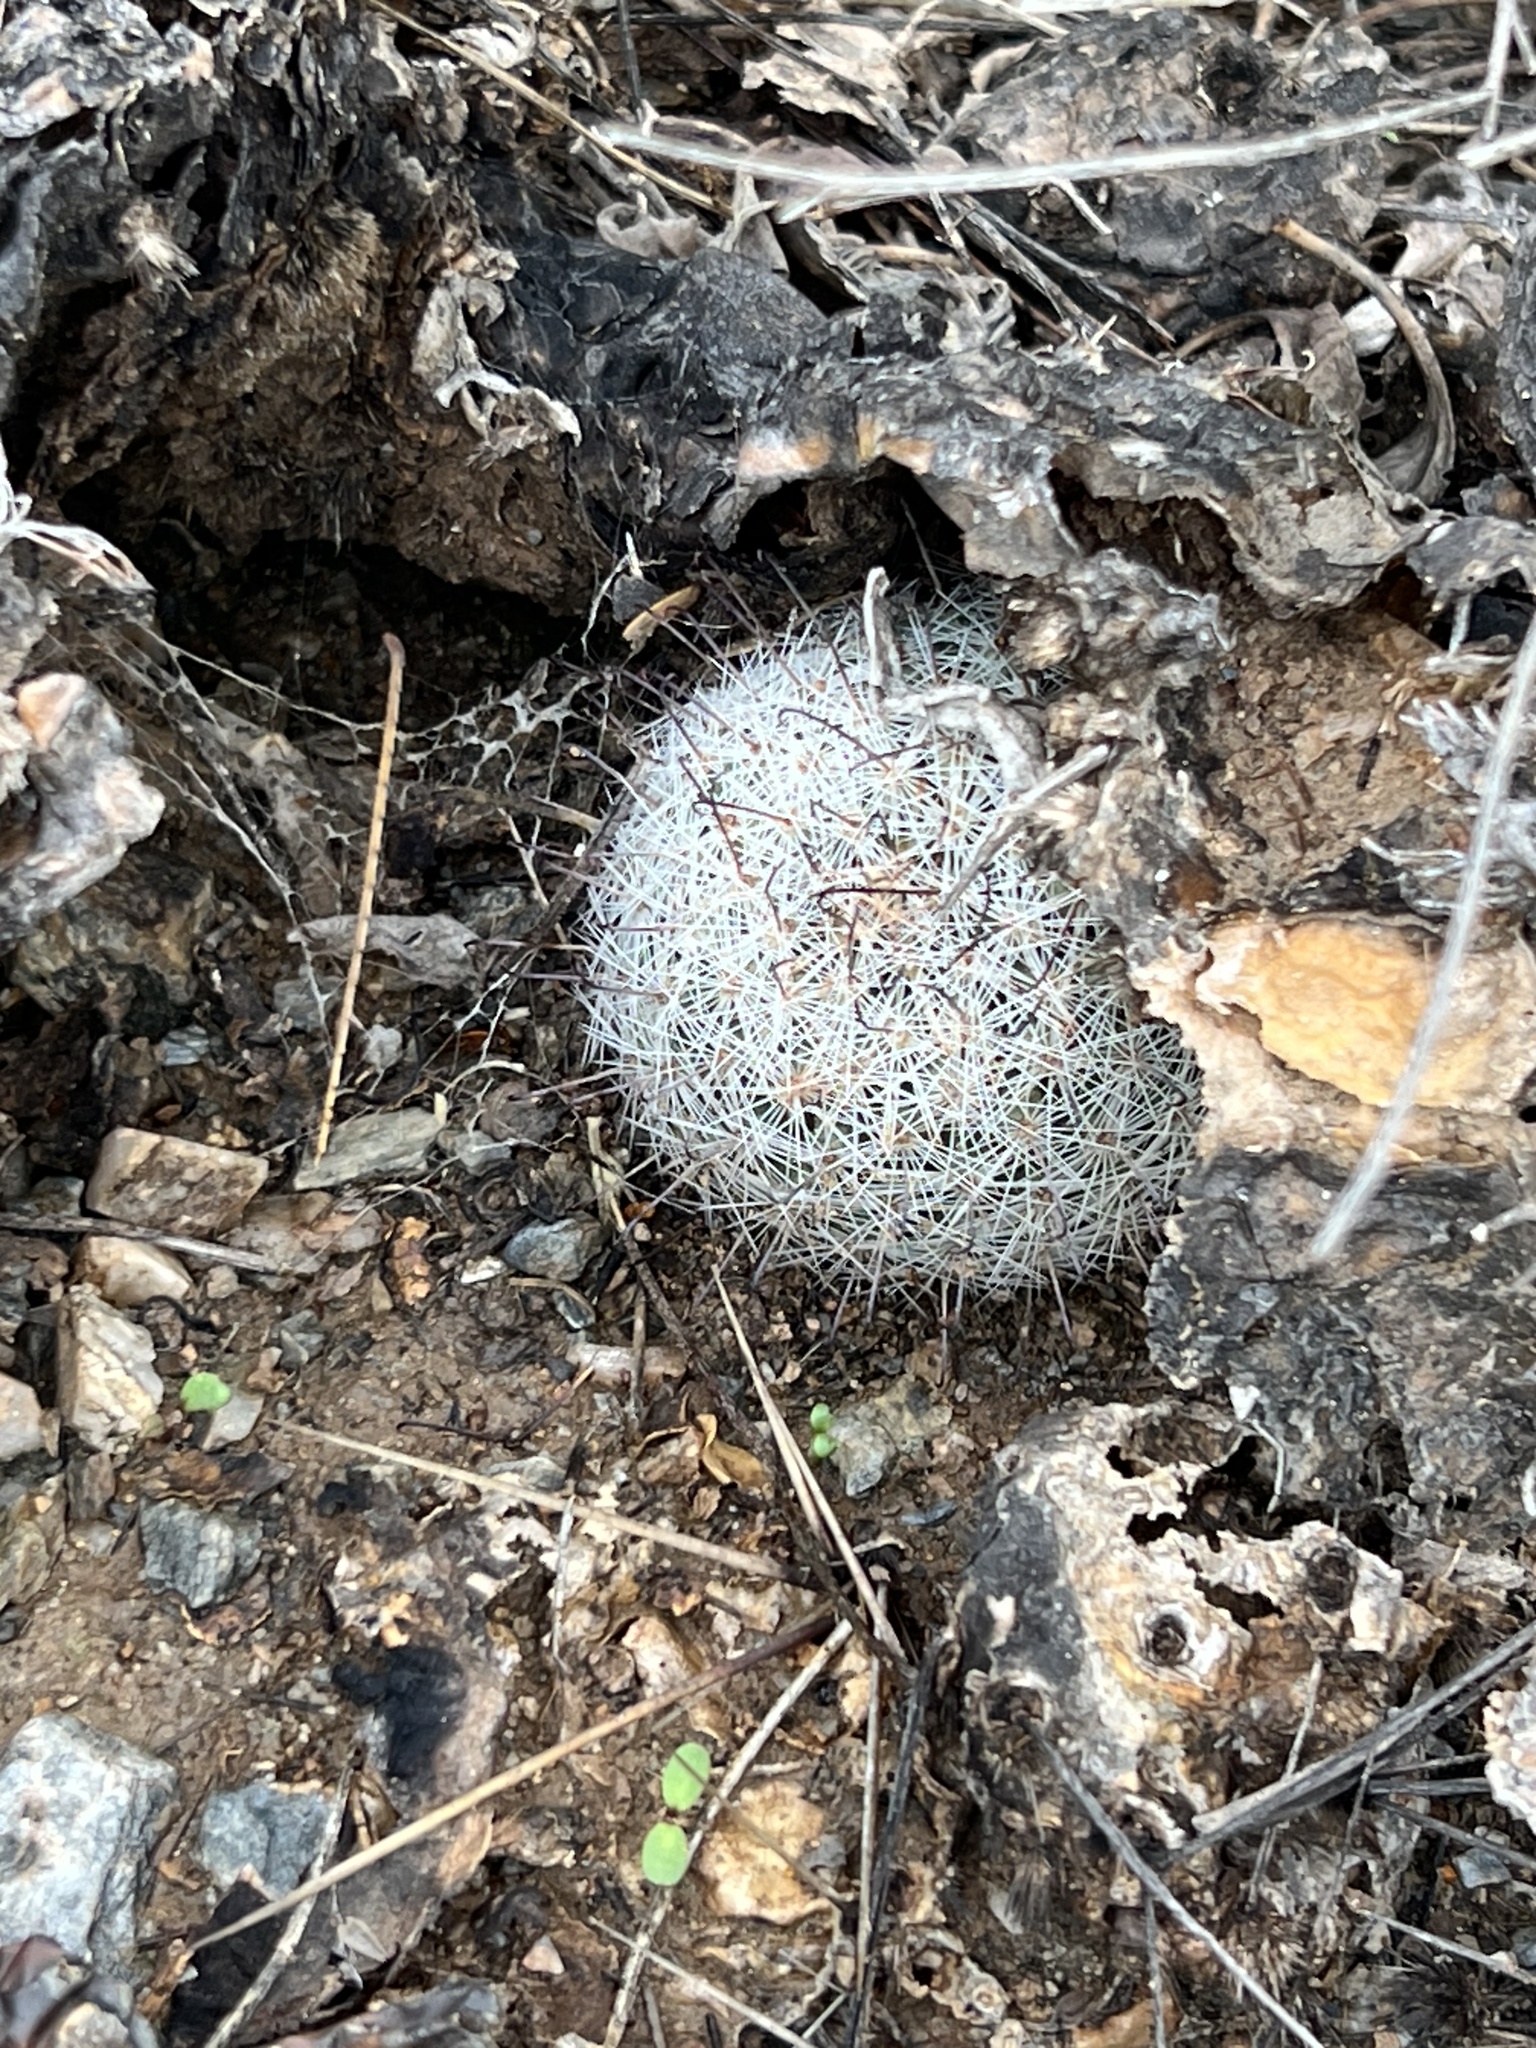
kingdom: Plantae
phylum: Tracheophyta
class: Magnoliopsida
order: Caryophyllales
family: Cactaceae
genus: Cochemiea
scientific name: Cochemiea grahamii
